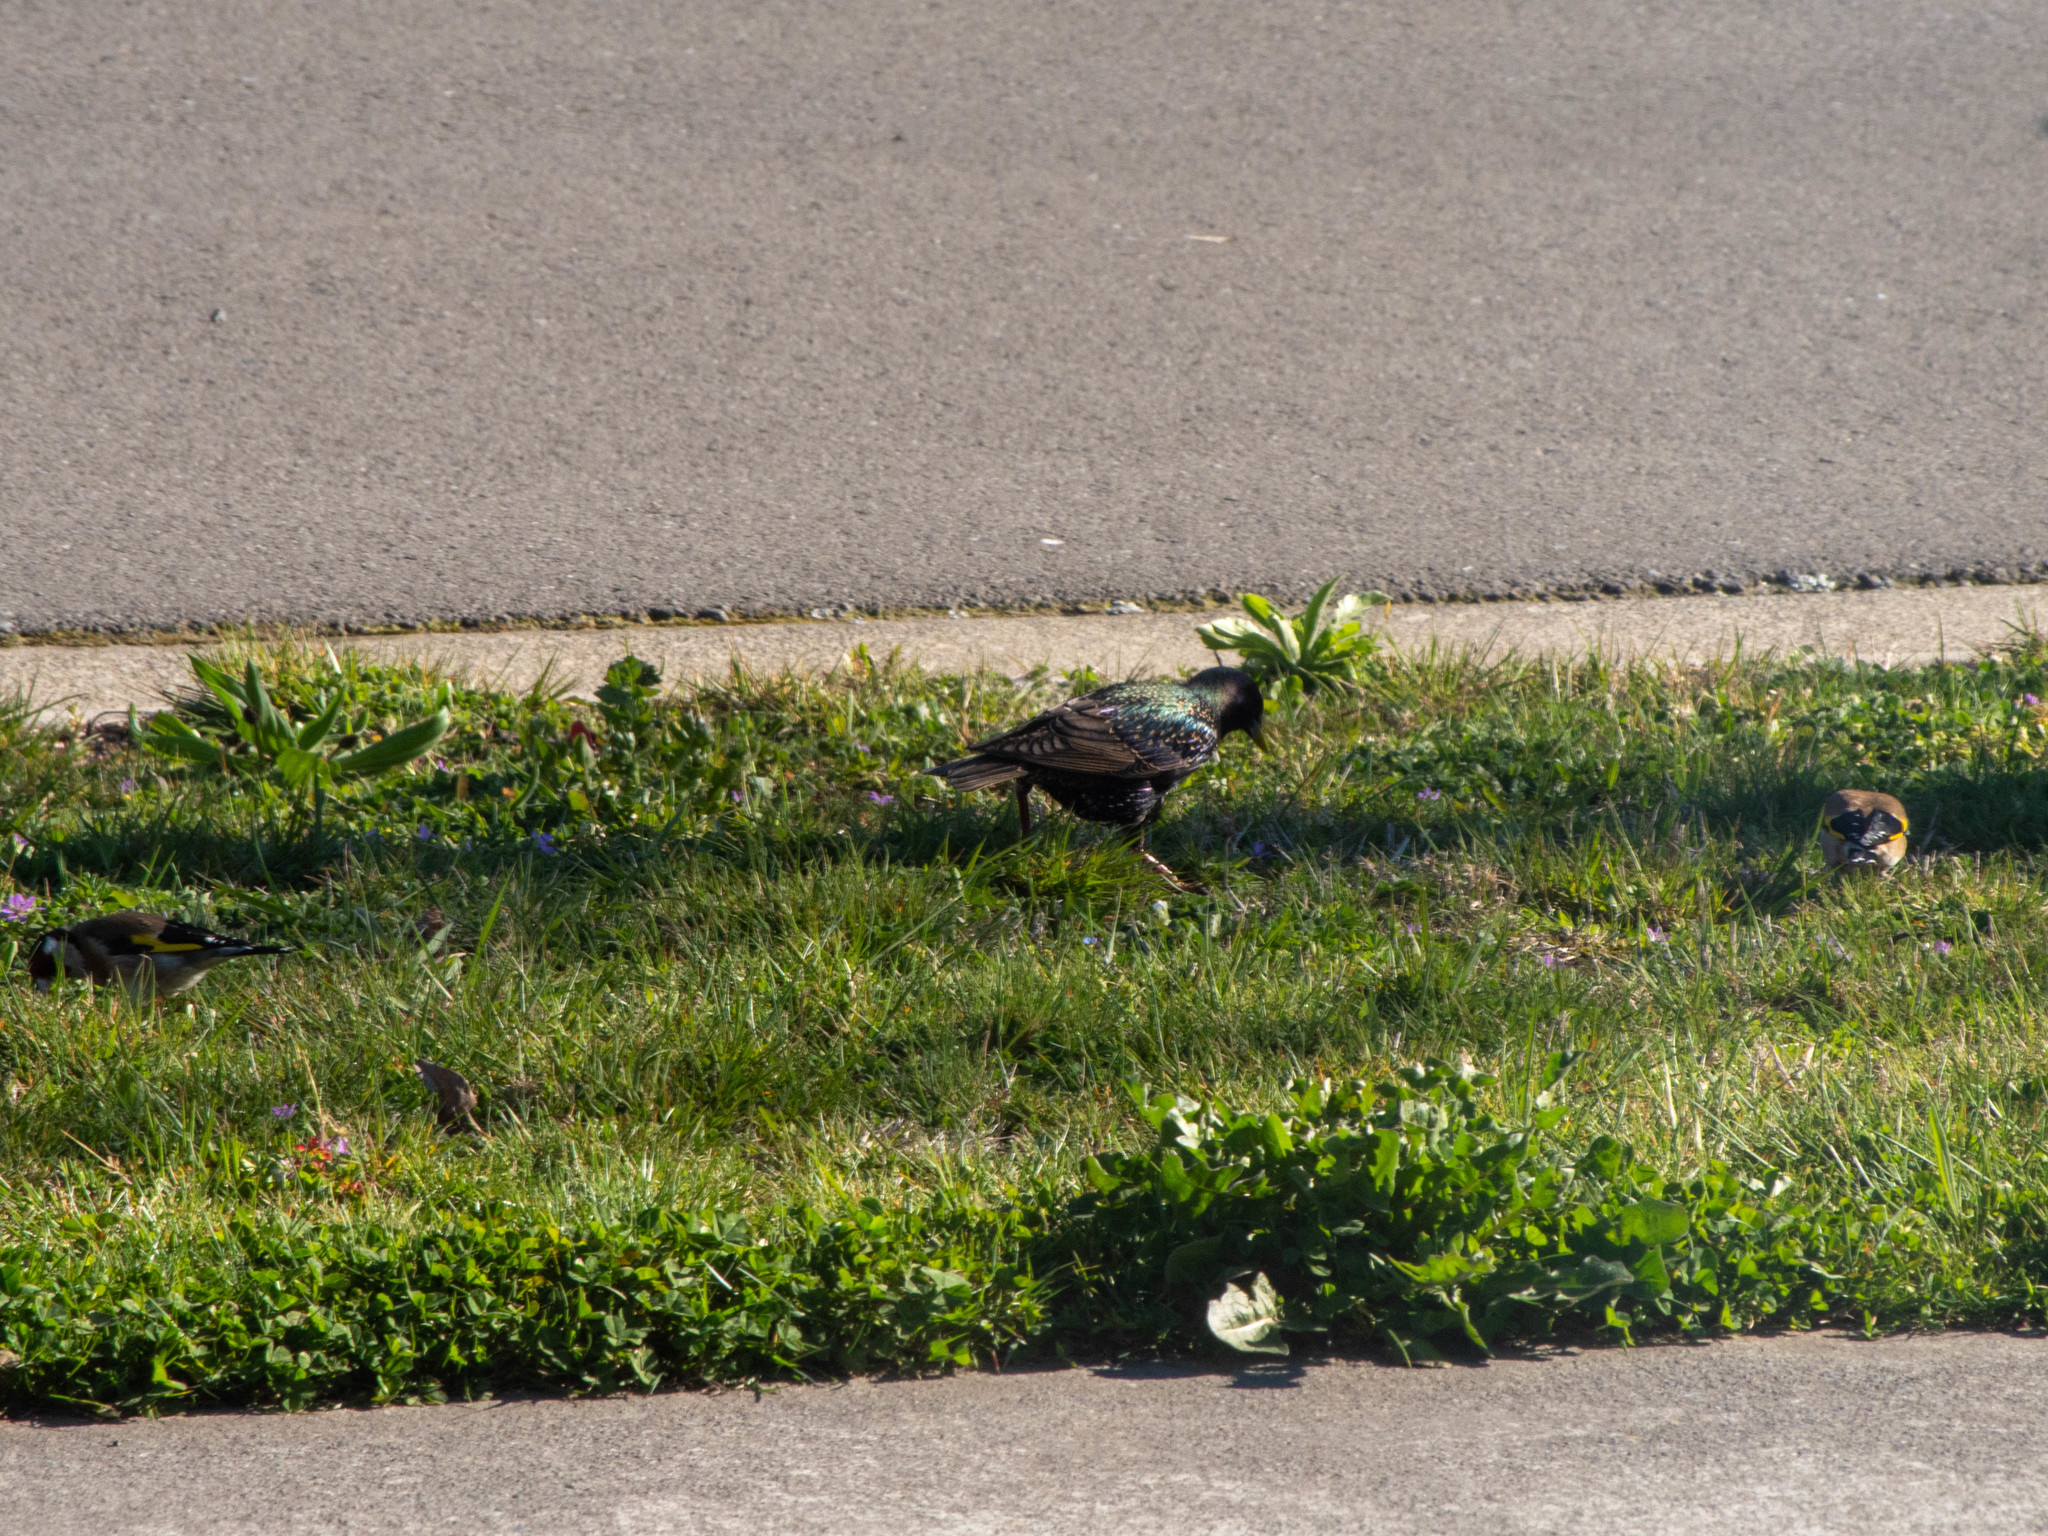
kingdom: Animalia
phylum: Chordata
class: Aves
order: Passeriformes
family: Sturnidae
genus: Sturnus
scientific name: Sturnus vulgaris
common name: Common starling
